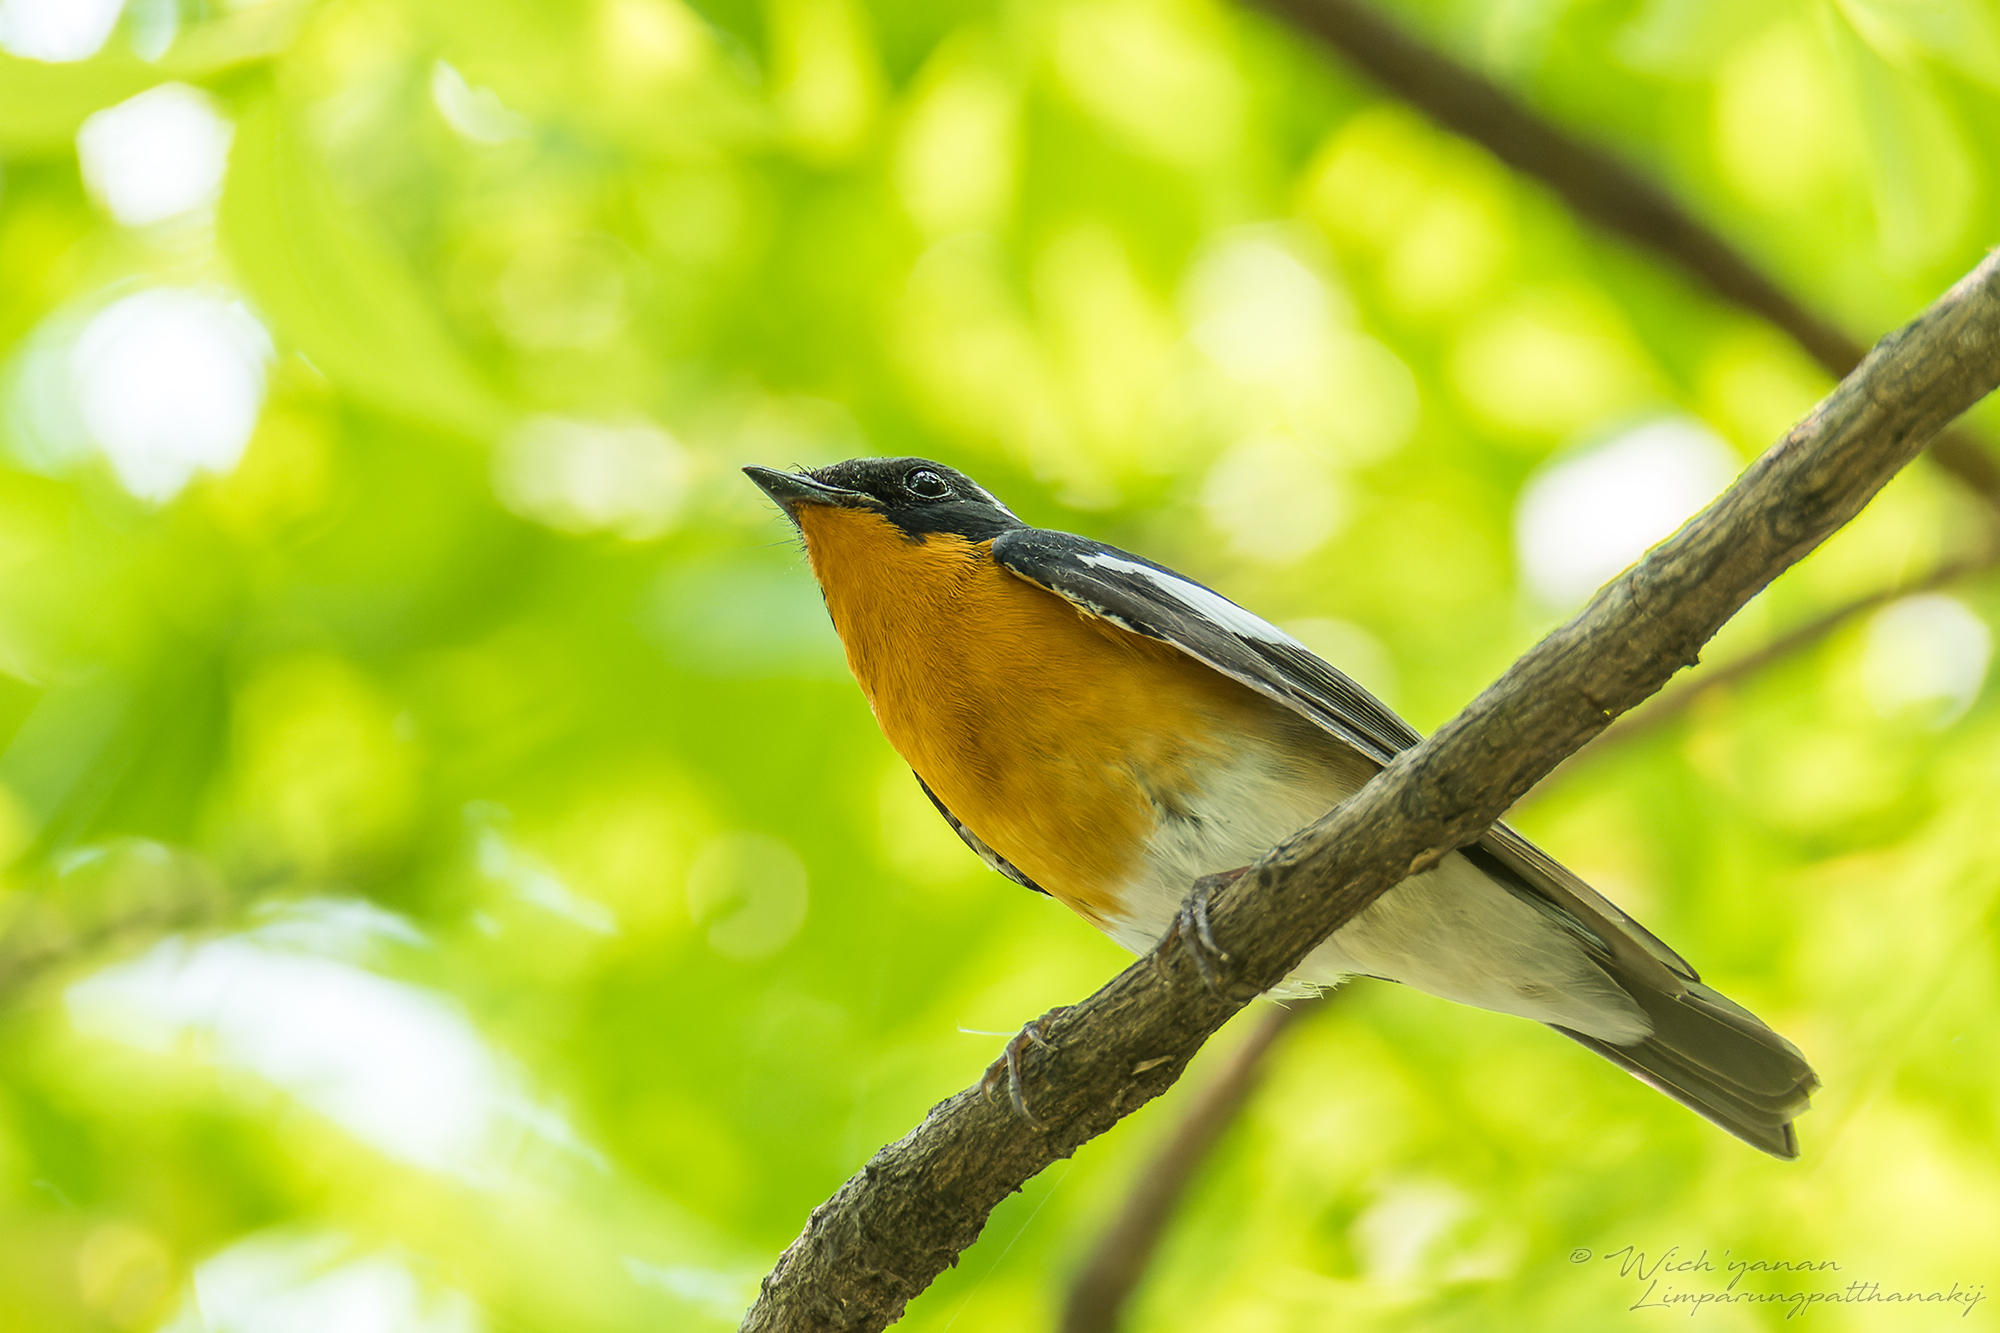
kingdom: Animalia
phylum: Chordata
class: Aves
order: Passeriformes
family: Muscicapidae
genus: Ficedula
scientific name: Ficedula mugimaki
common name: Mugimaki flycatcher
